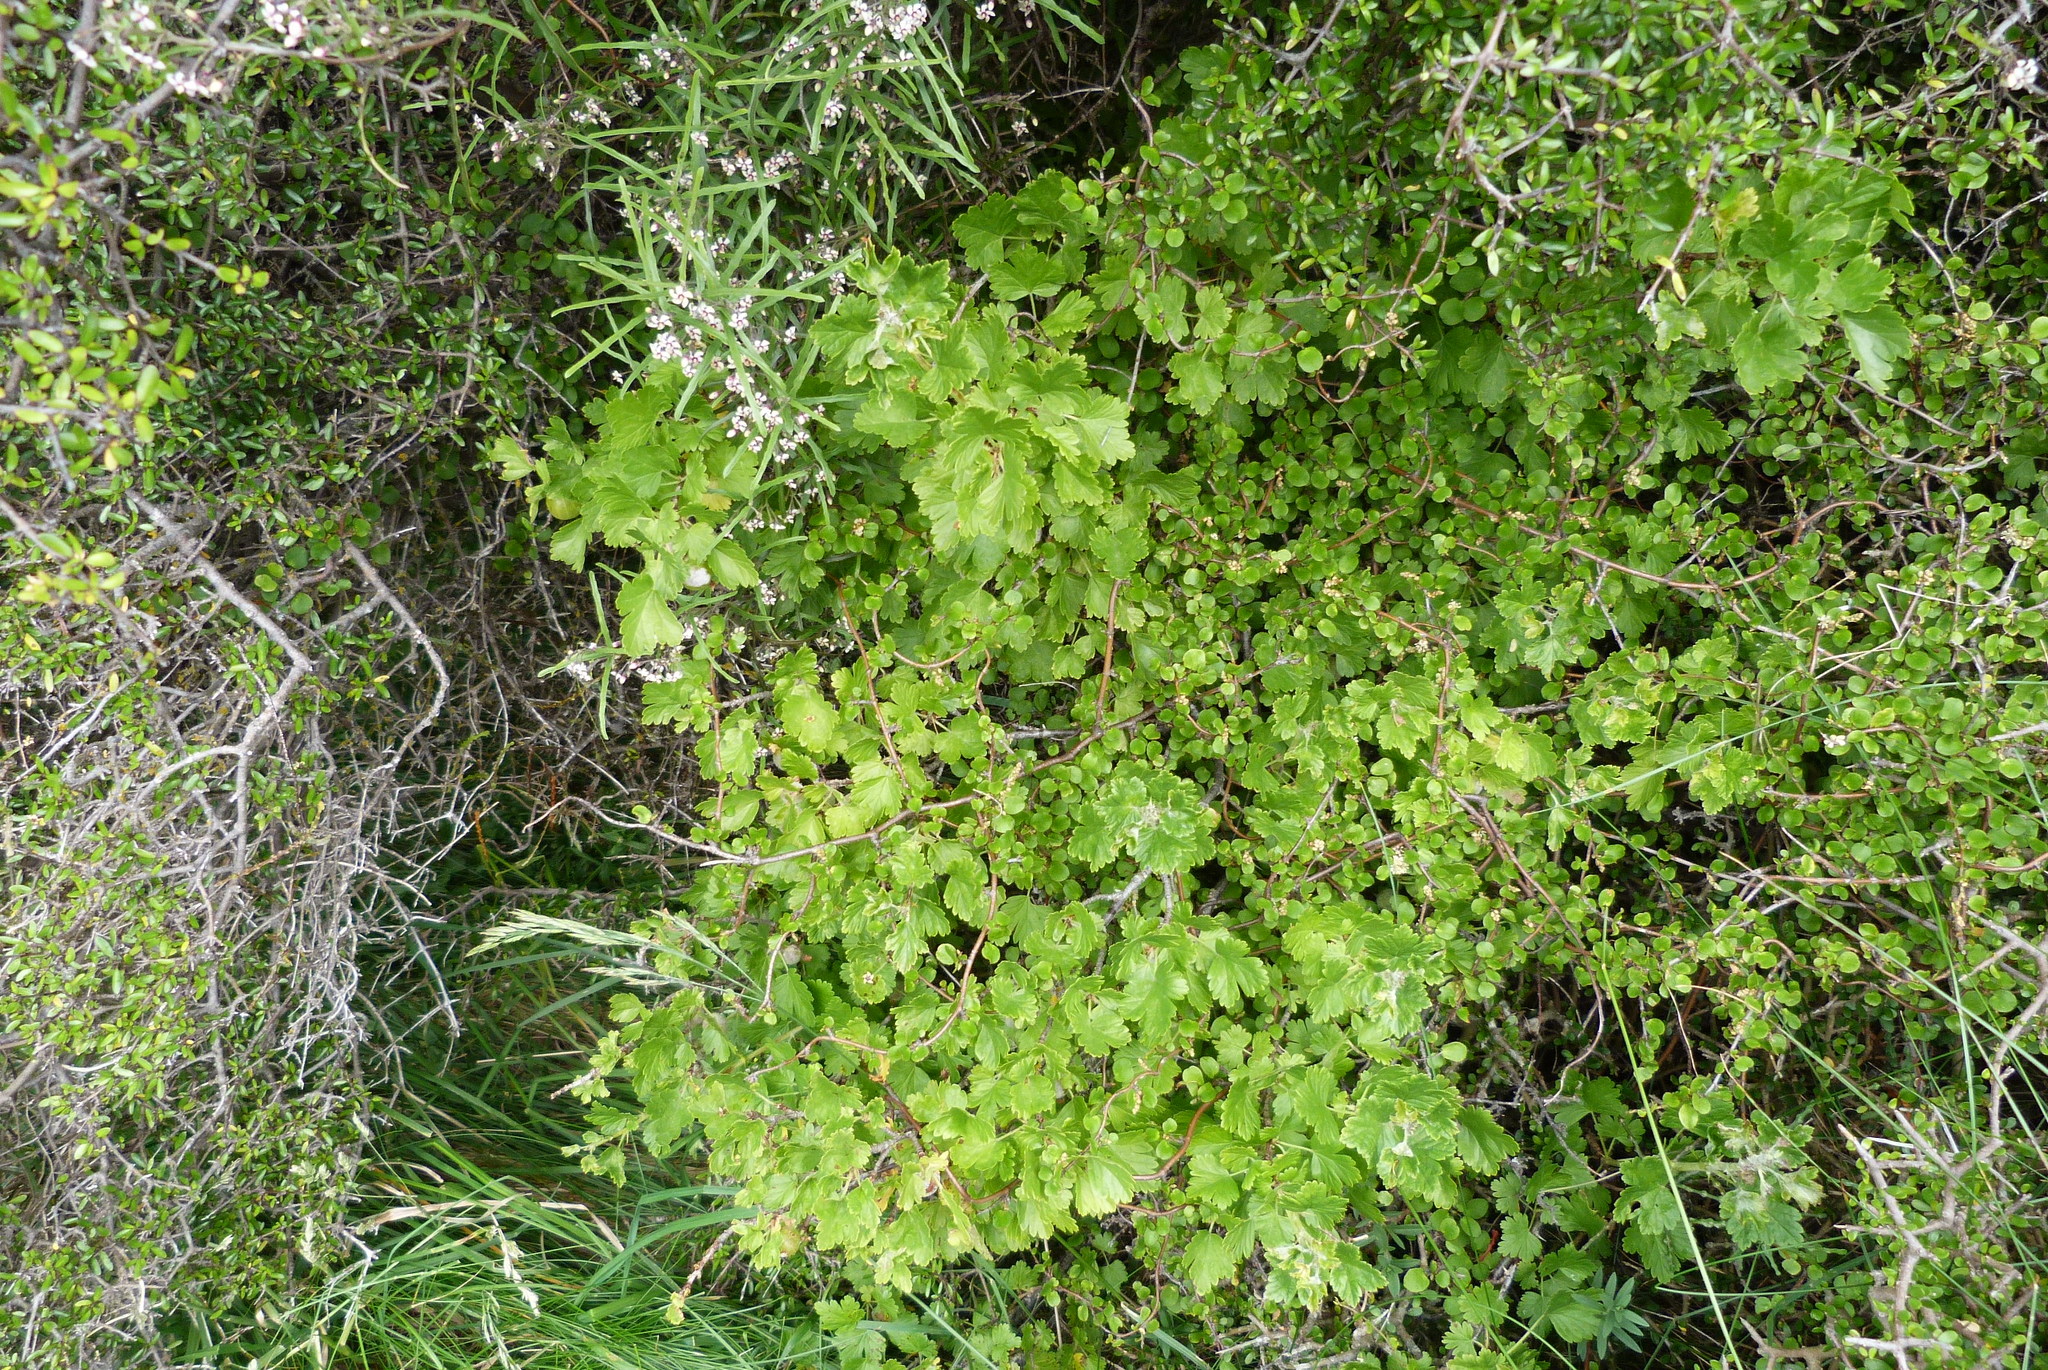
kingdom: Plantae
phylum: Tracheophyta
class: Magnoliopsida
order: Saxifragales
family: Grossulariaceae
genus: Ribes
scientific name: Ribes uva-crispa
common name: Gooseberry
